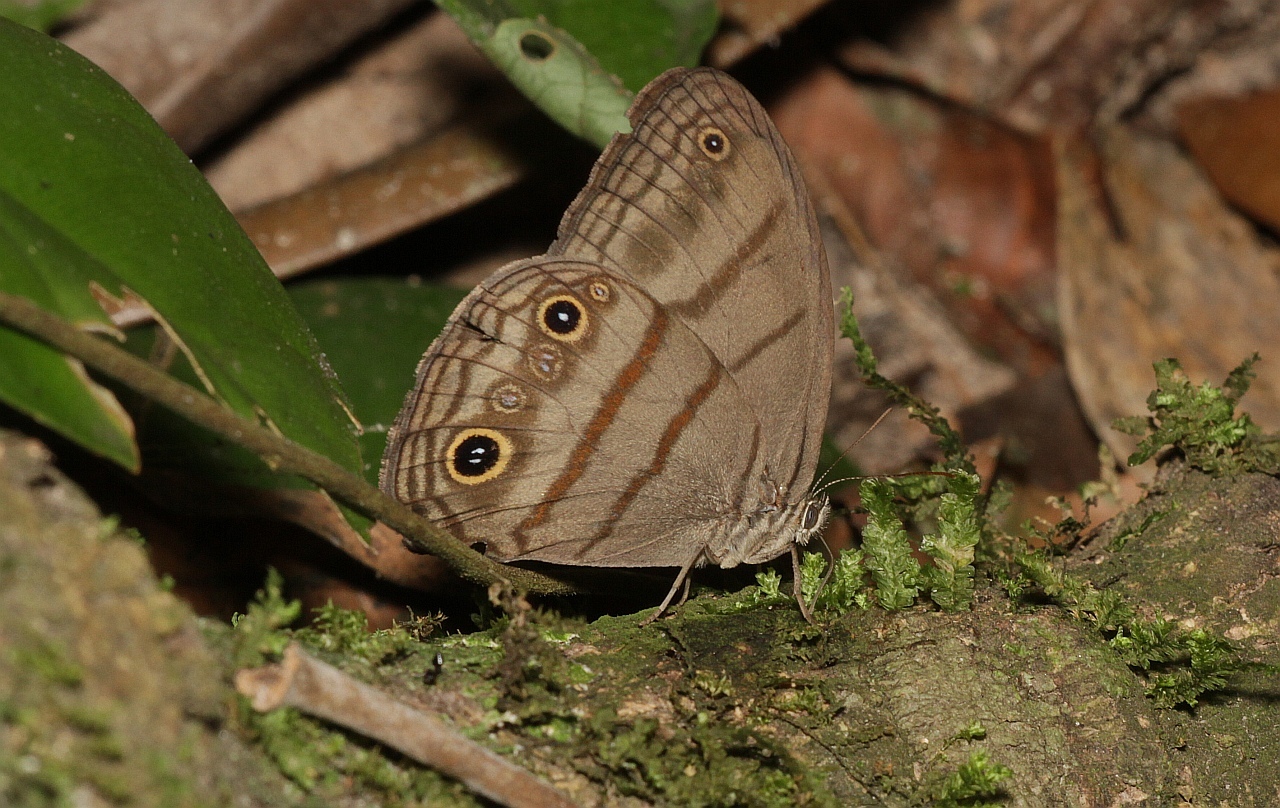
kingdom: Animalia
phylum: Arthropoda
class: Insecta
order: Lepidoptera
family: Nymphalidae
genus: Megeuptychia
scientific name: Megeuptychia antonoe
